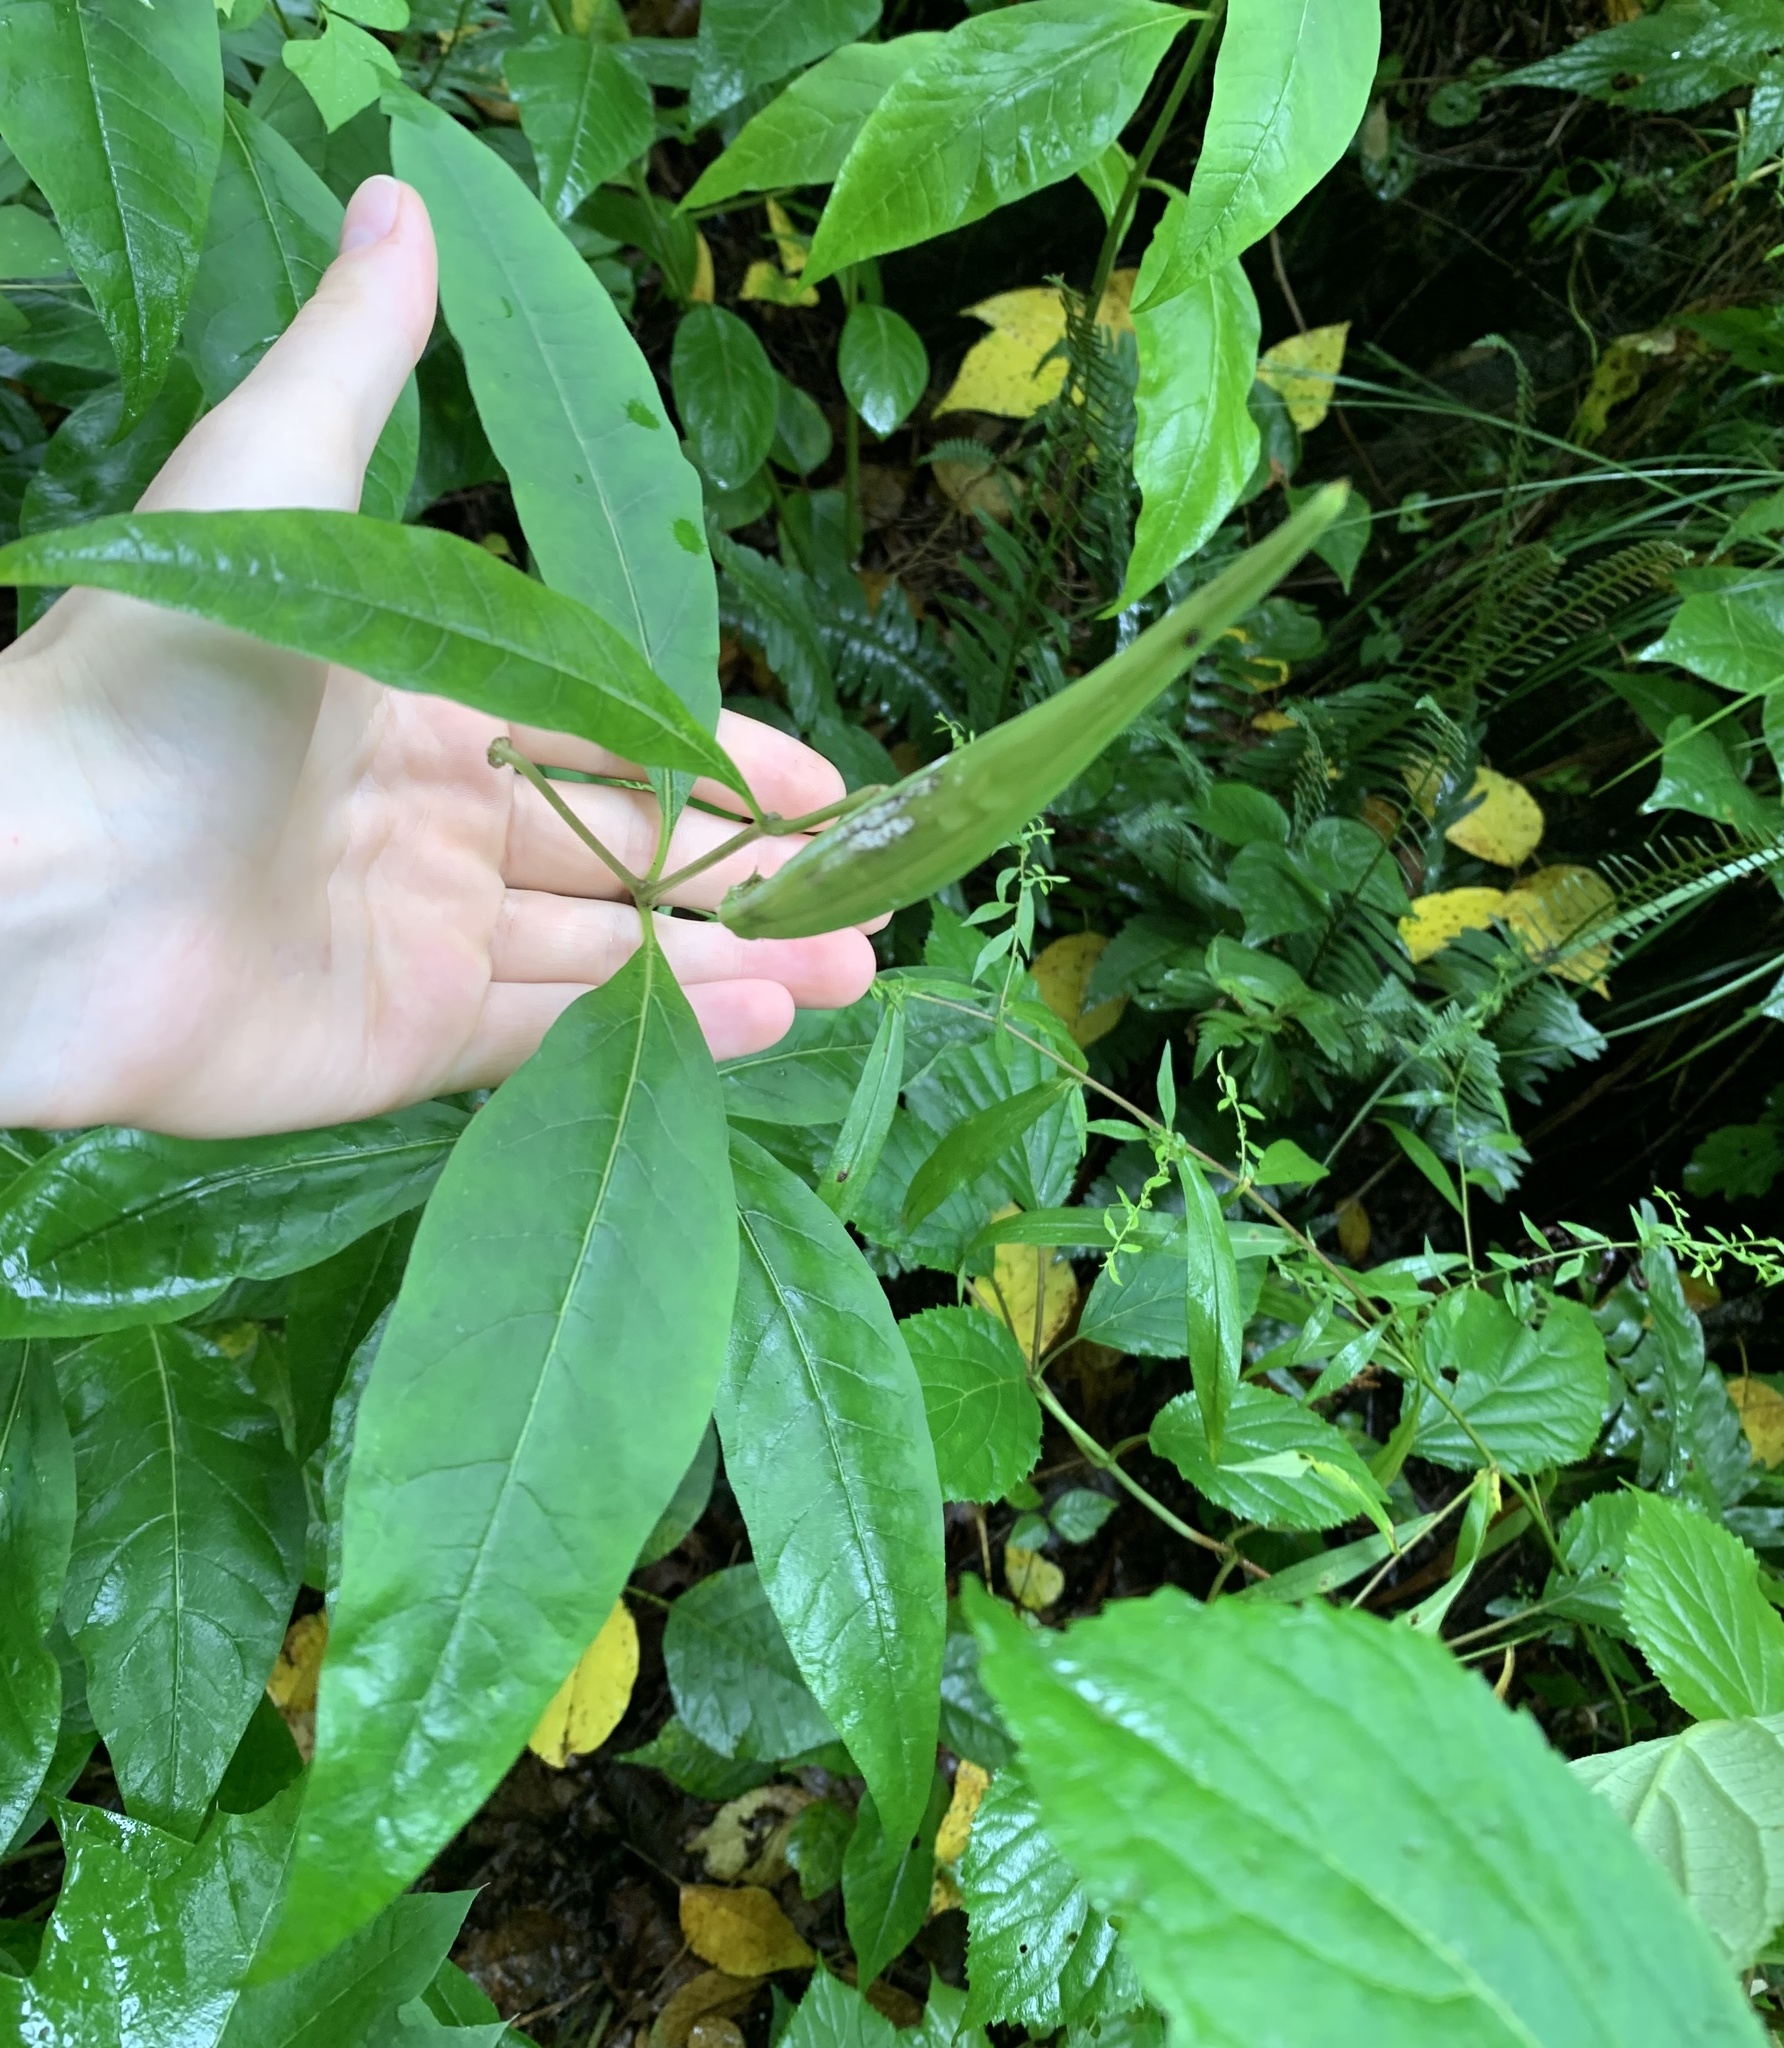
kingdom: Plantae
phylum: Tracheophyta
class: Magnoliopsida
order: Gentianales
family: Apocynaceae
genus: Asclepias
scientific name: Asclepias exaltata
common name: Poke milkweed
